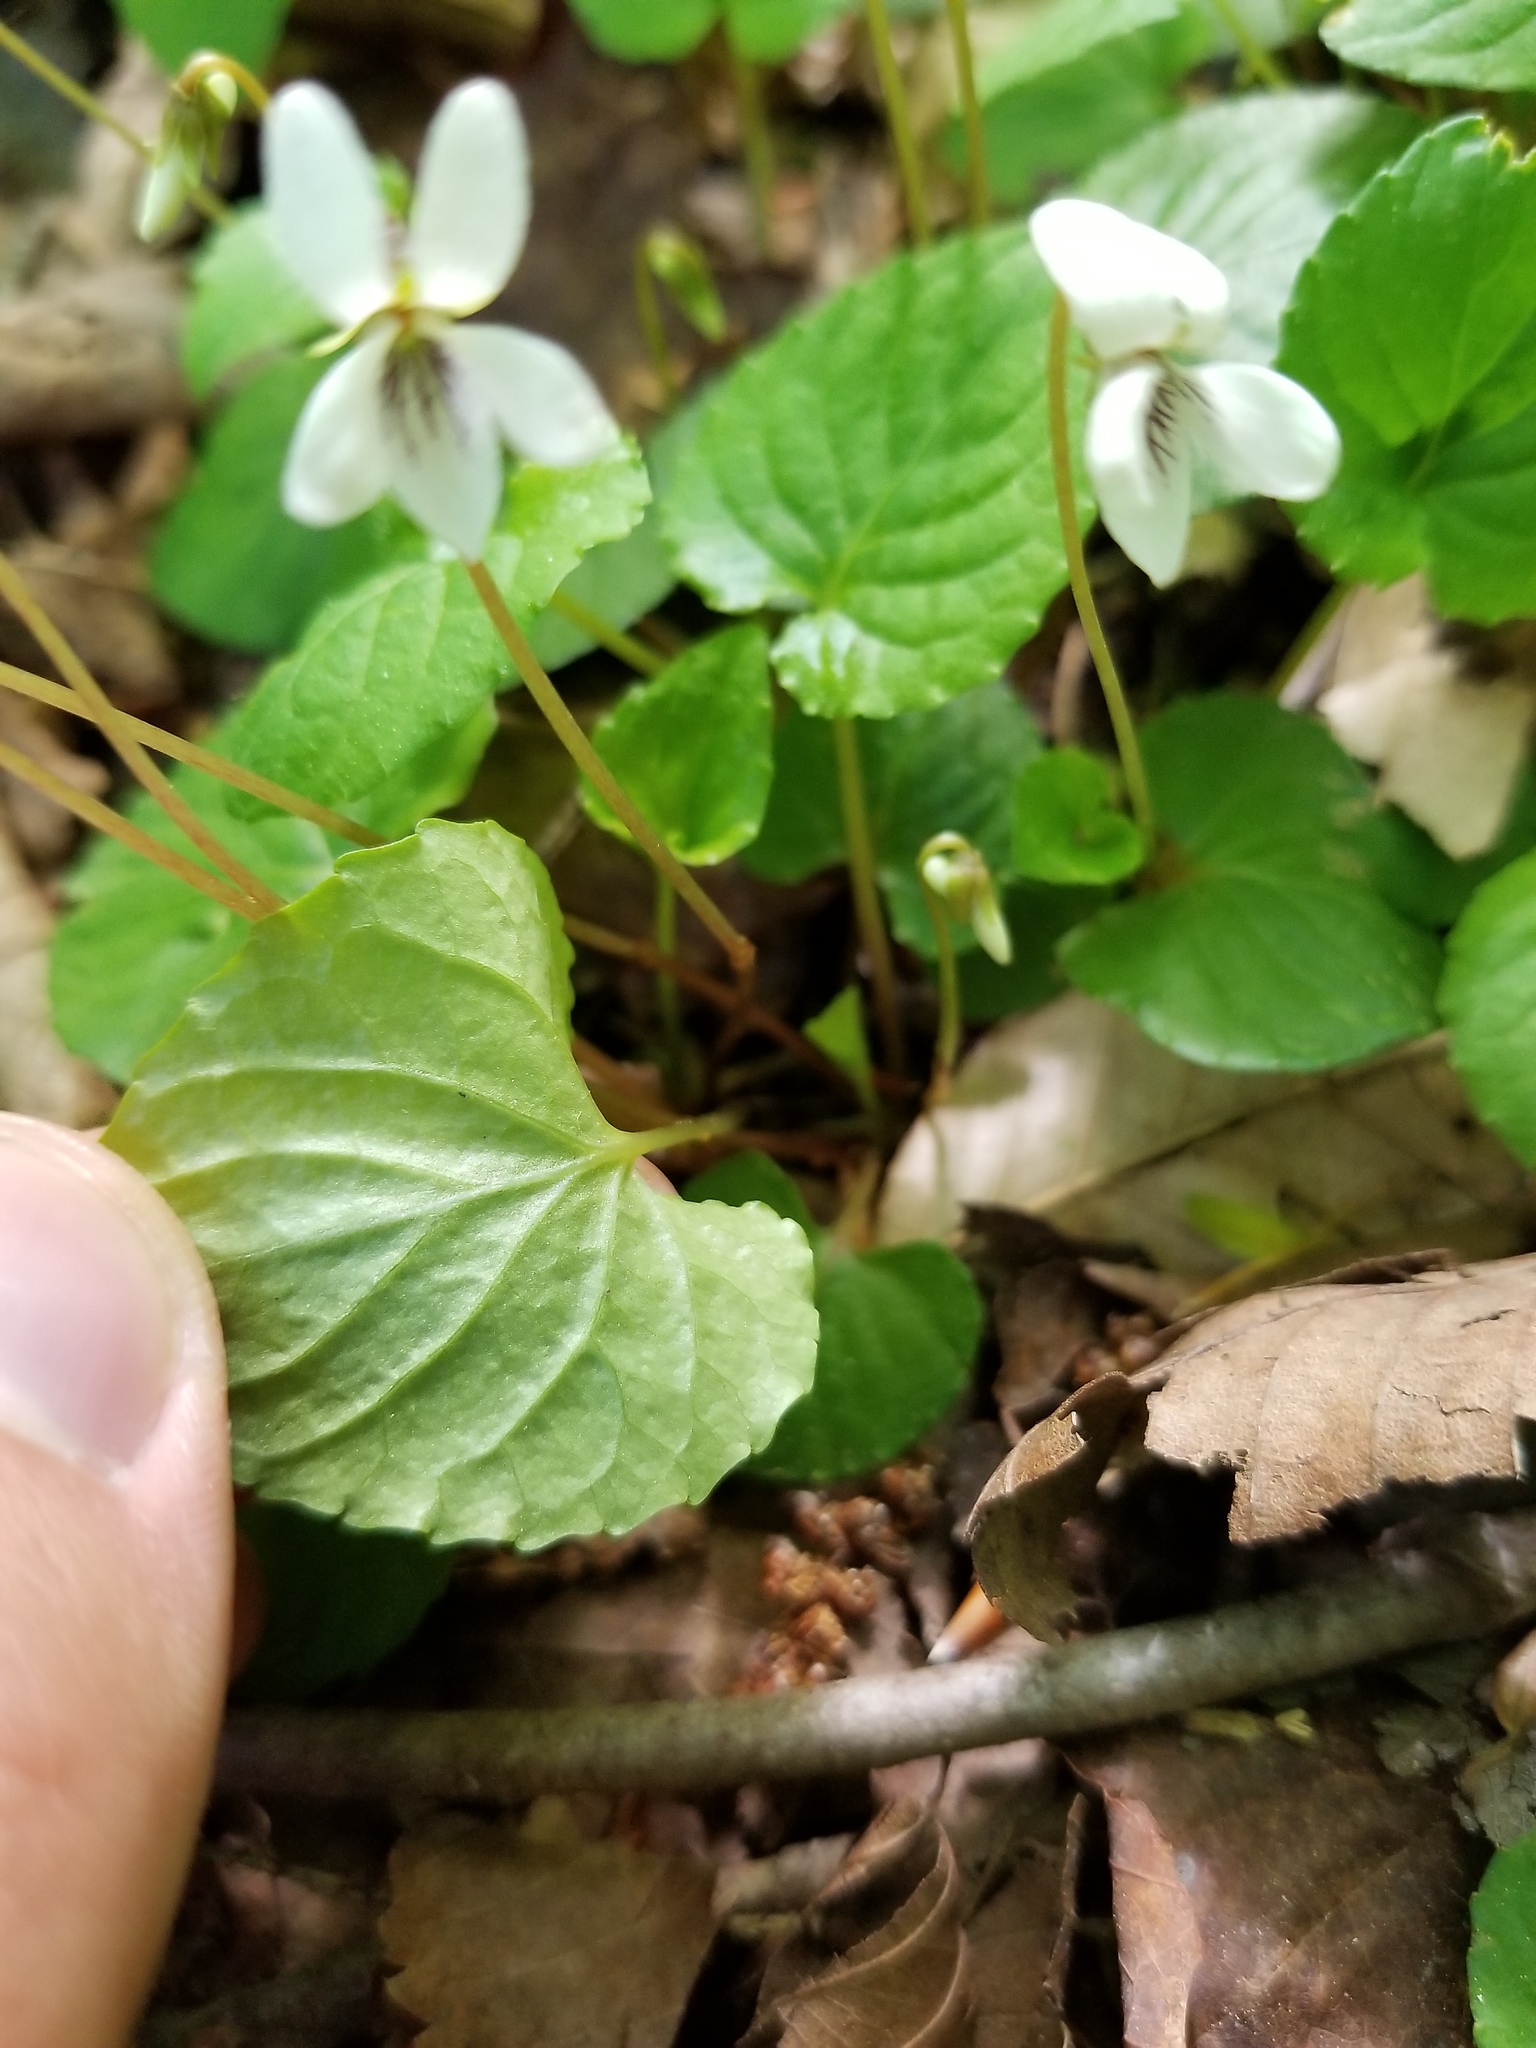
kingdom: Plantae
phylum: Tracheophyta
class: Magnoliopsida
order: Malpighiales
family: Violaceae
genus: Viola
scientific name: Viola blanda
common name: Sweet white violet
